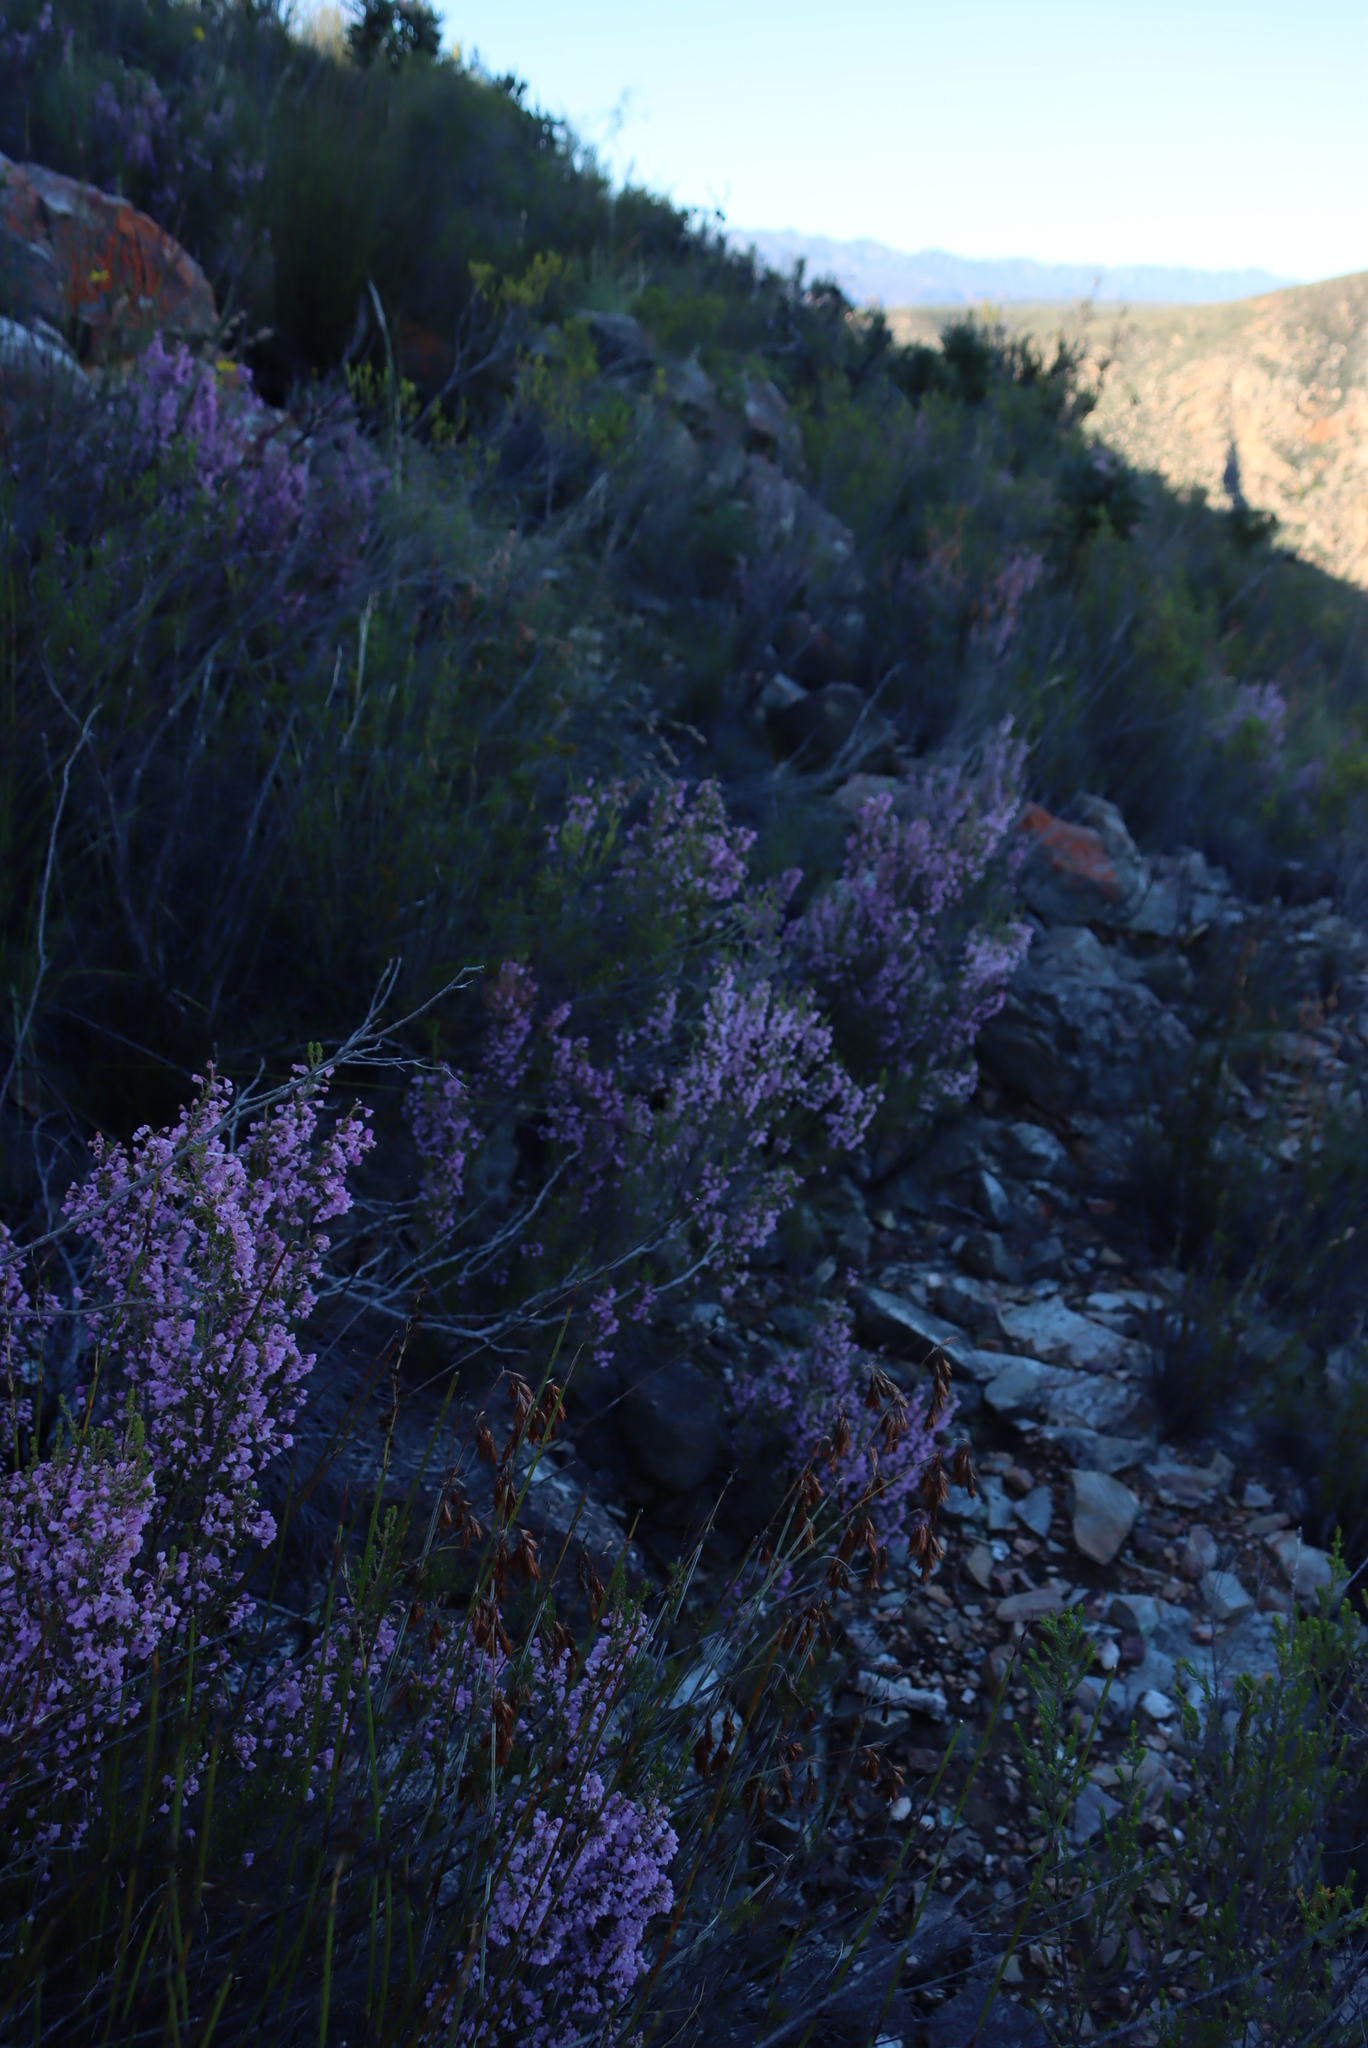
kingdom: Plantae
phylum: Tracheophyta
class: Magnoliopsida
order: Ericales
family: Ericaceae
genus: Erica
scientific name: Erica newdigatei
